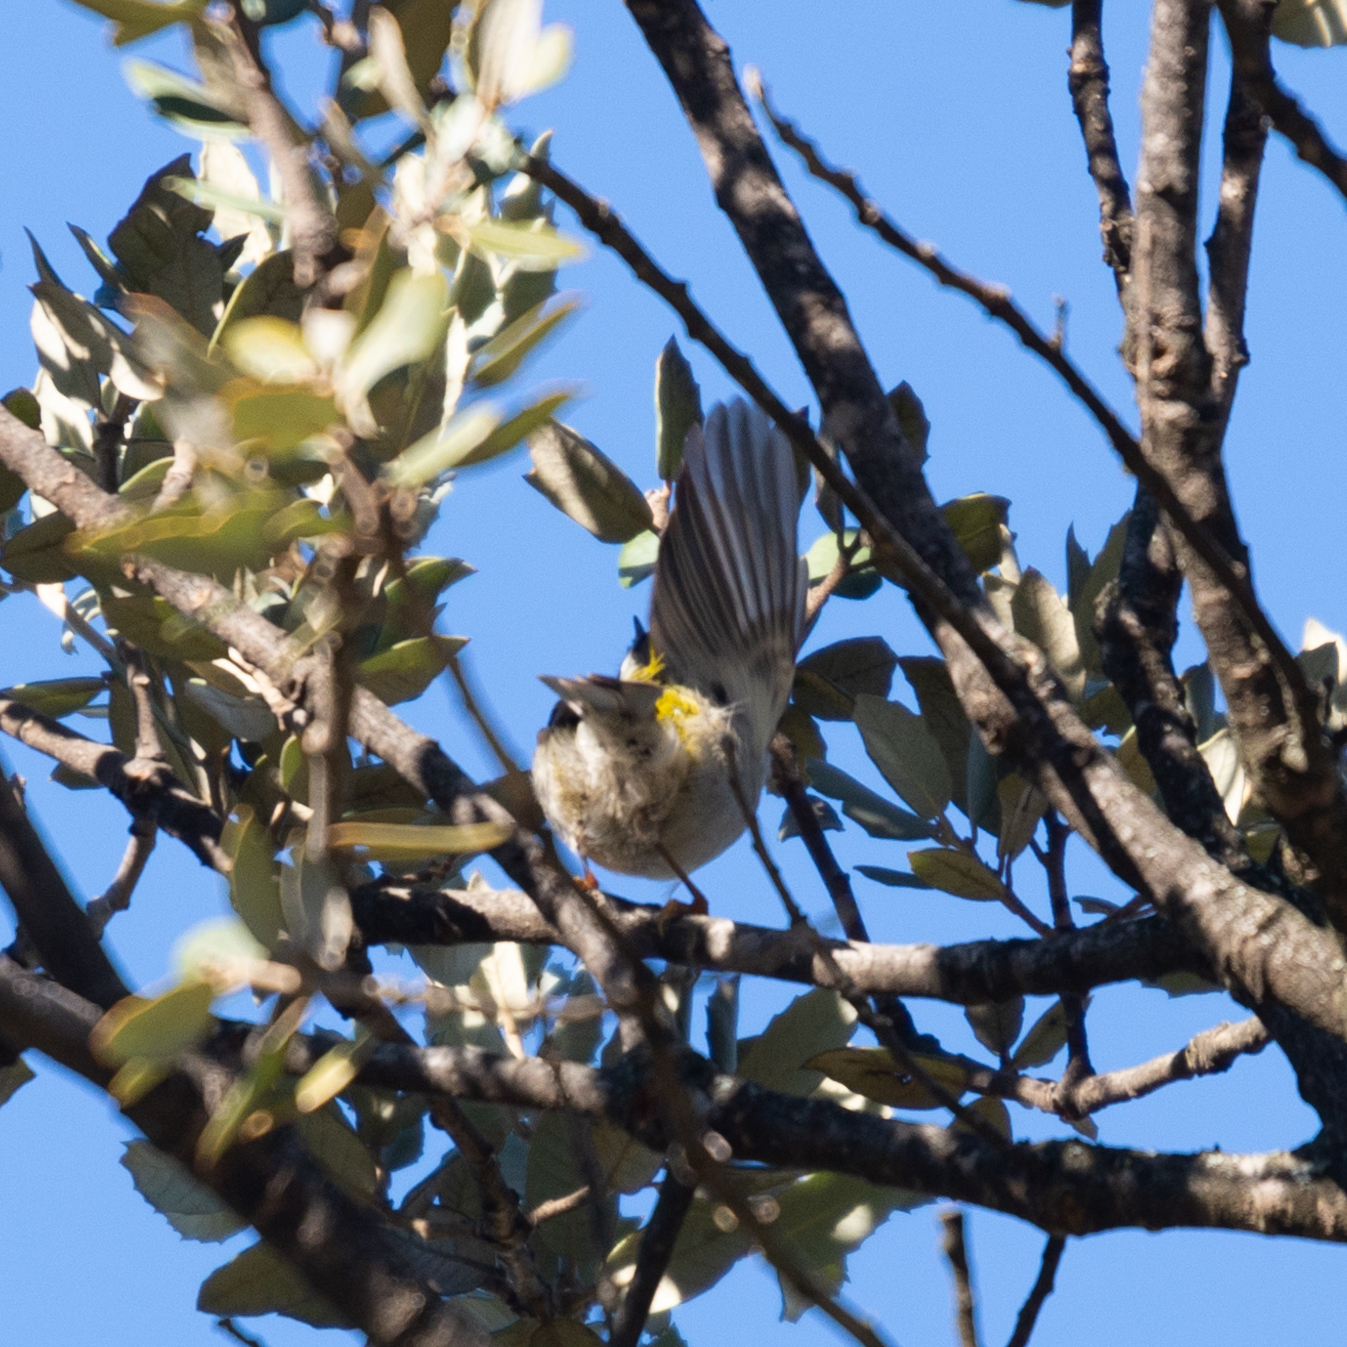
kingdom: Animalia
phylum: Chordata
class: Aves
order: Passeriformes
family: Regulidae
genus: Regulus
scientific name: Regulus ignicapilla
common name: Firecrest
